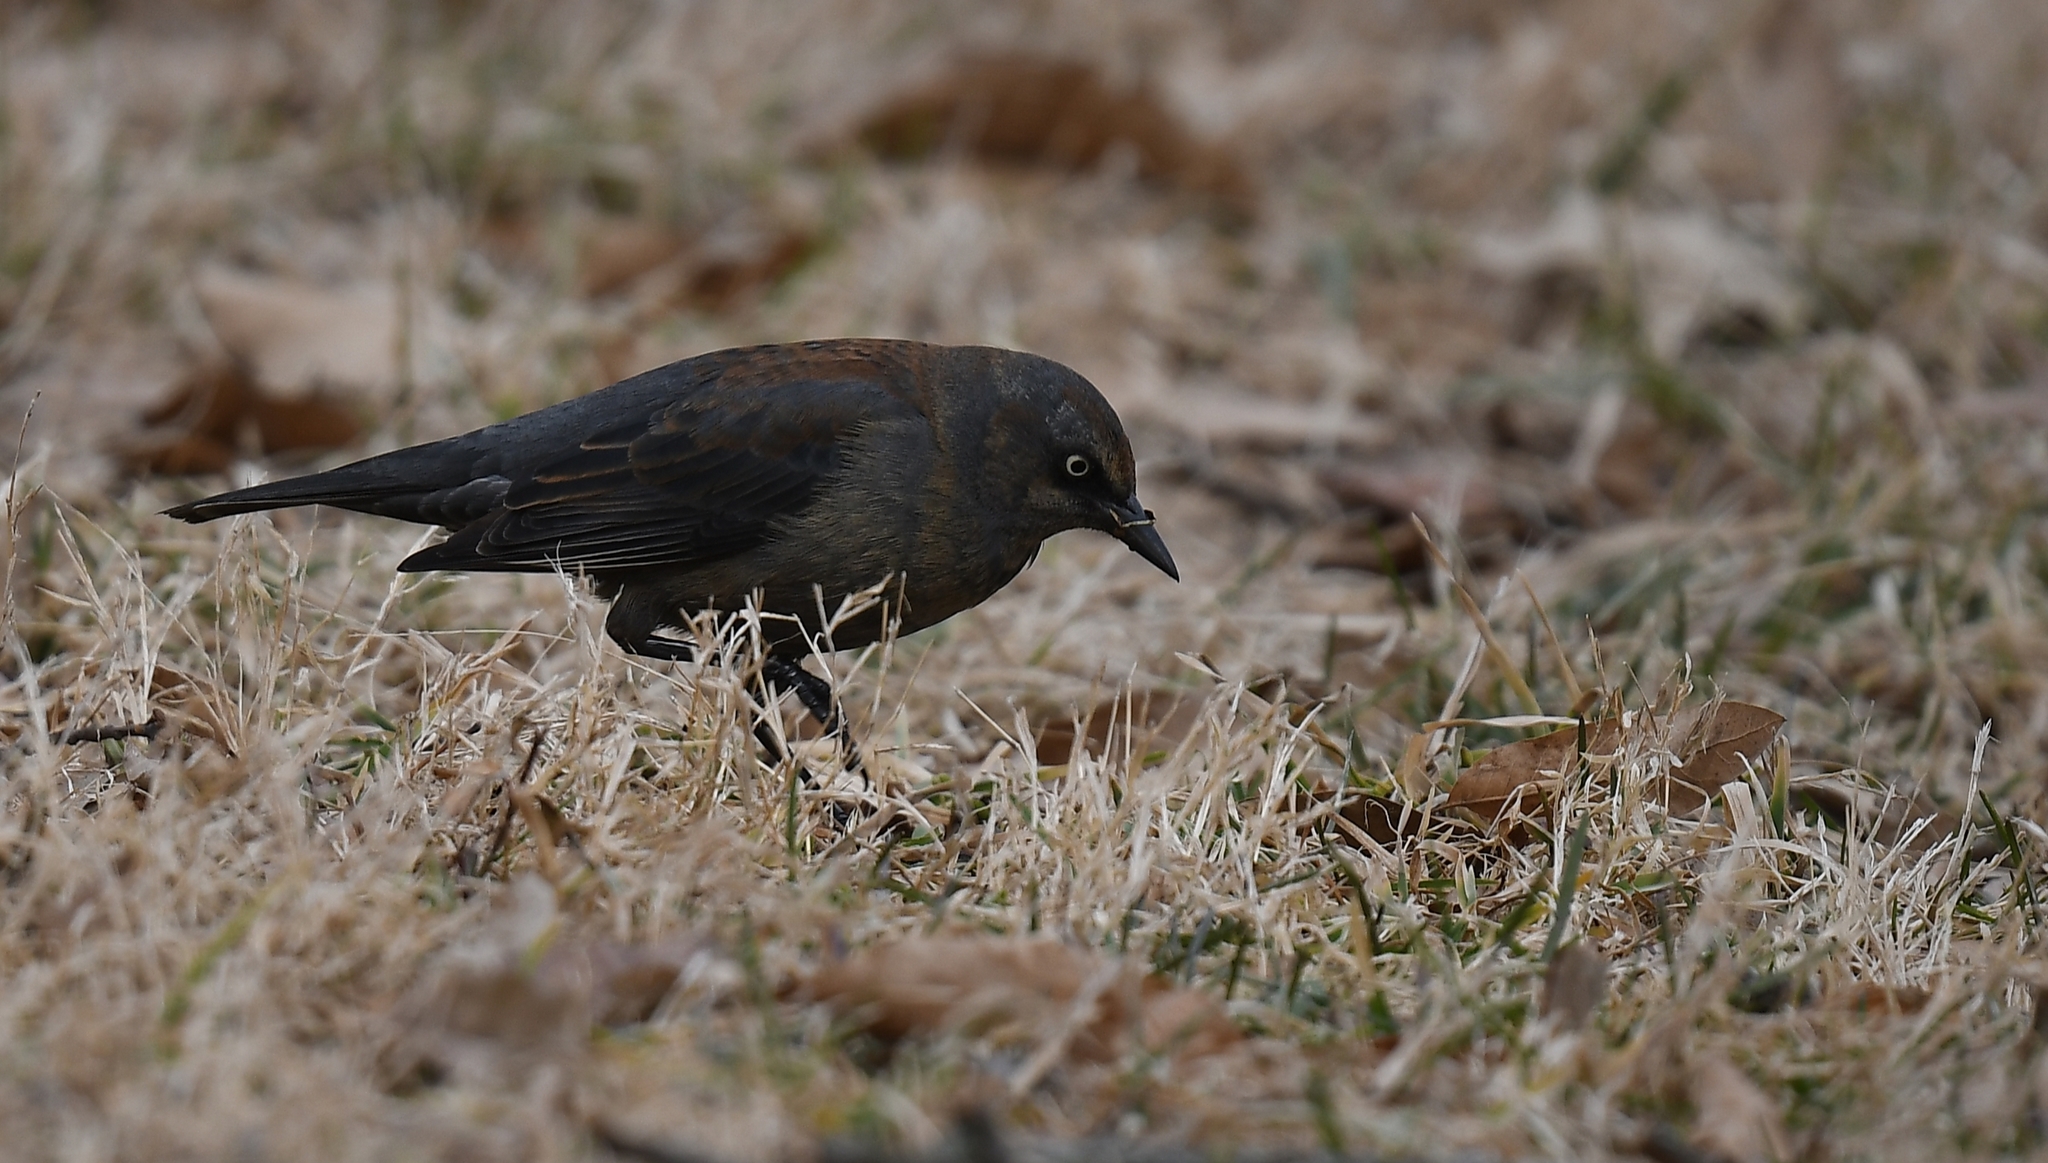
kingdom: Animalia
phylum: Chordata
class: Aves
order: Passeriformes
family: Icteridae
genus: Euphagus
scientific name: Euphagus carolinus
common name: Rusty blackbird
